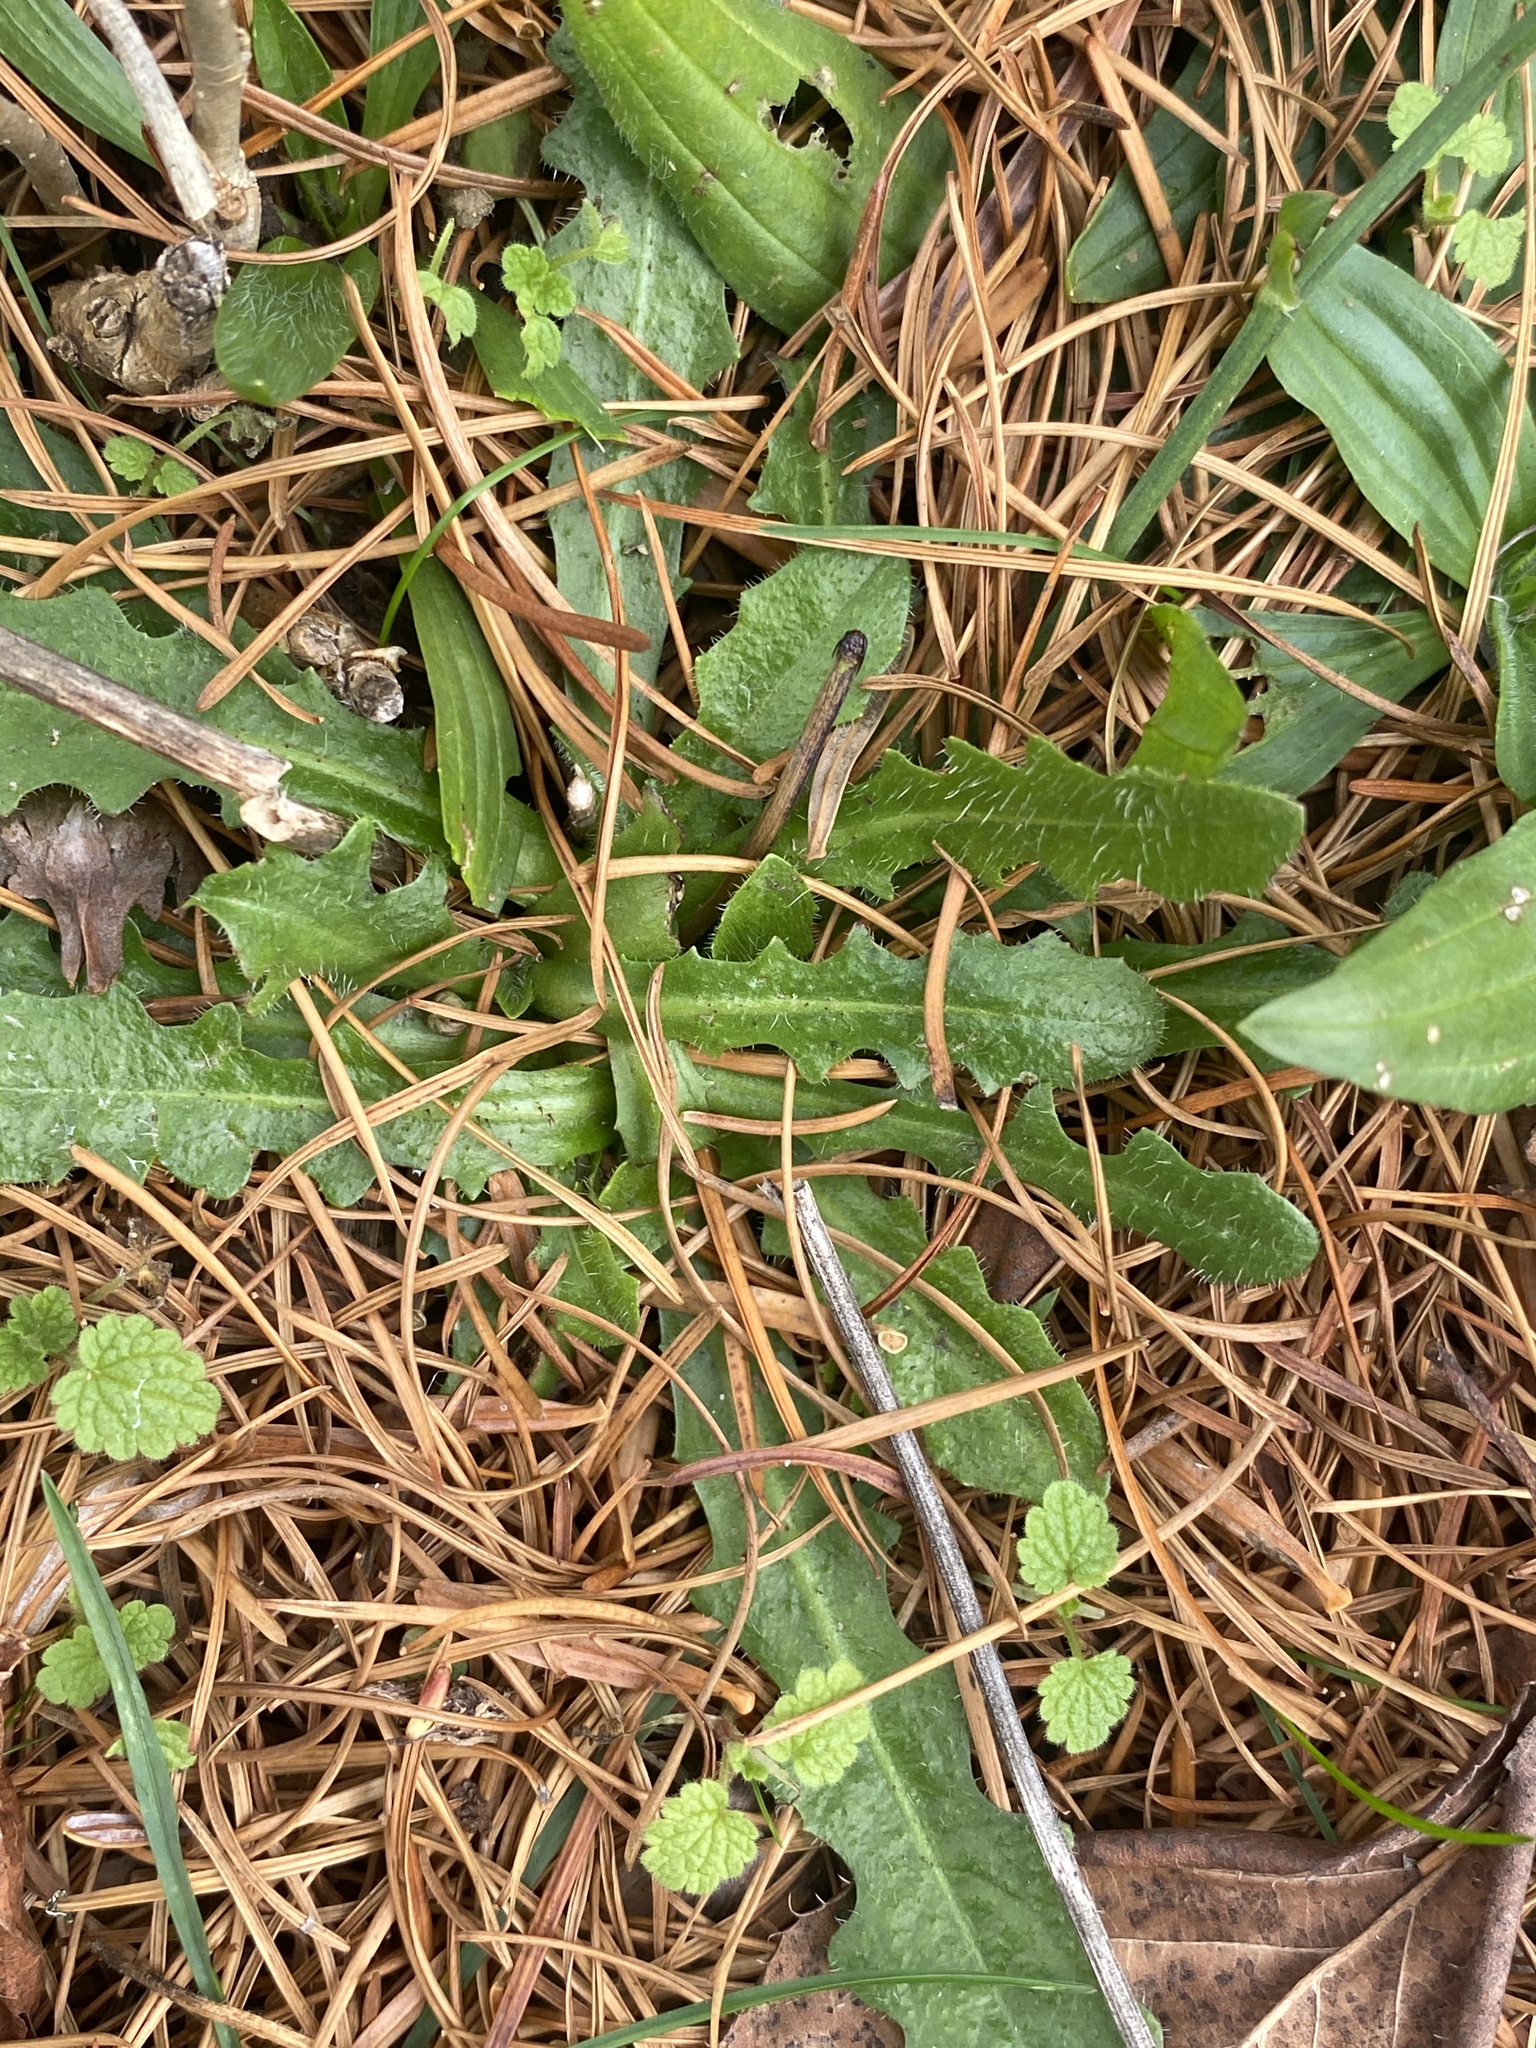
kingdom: Plantae
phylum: Tracheophyta
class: Magnoliopsida
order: Asterales
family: Asteraceae
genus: Hypochaeris
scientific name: Hypochaeris radicata
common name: Flatweed
